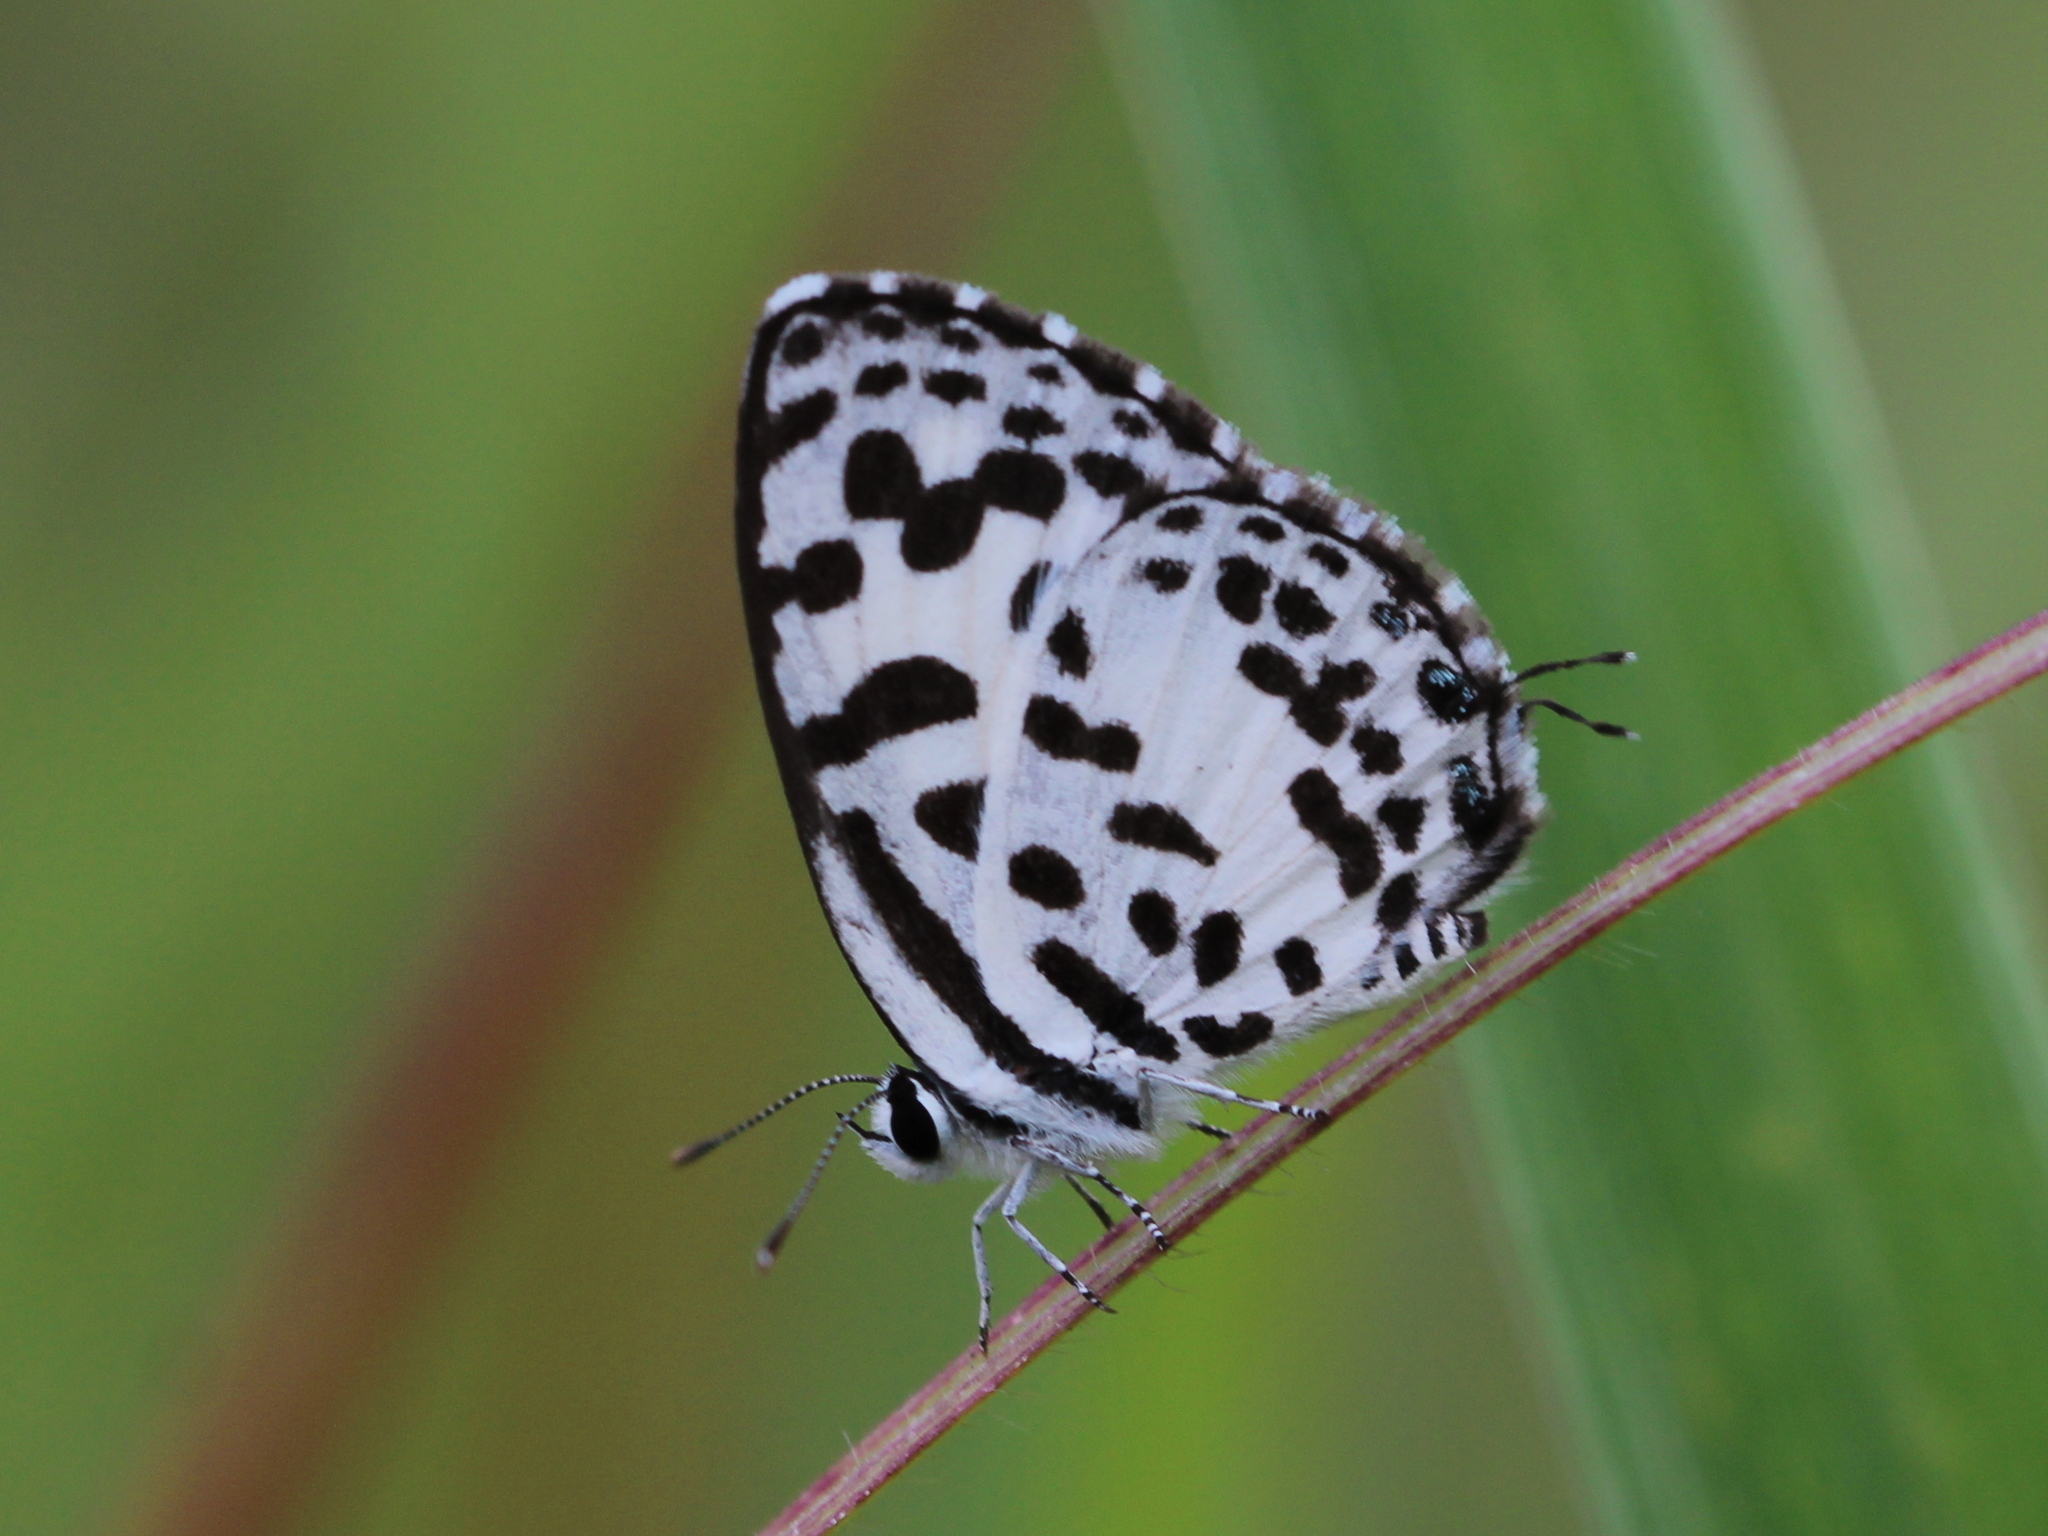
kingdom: Animalia
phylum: Arthropoda
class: Insecta
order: Lepidoptera
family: Lycaenidae
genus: Castalius
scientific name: Castalius rosimon
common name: Common pierrot
